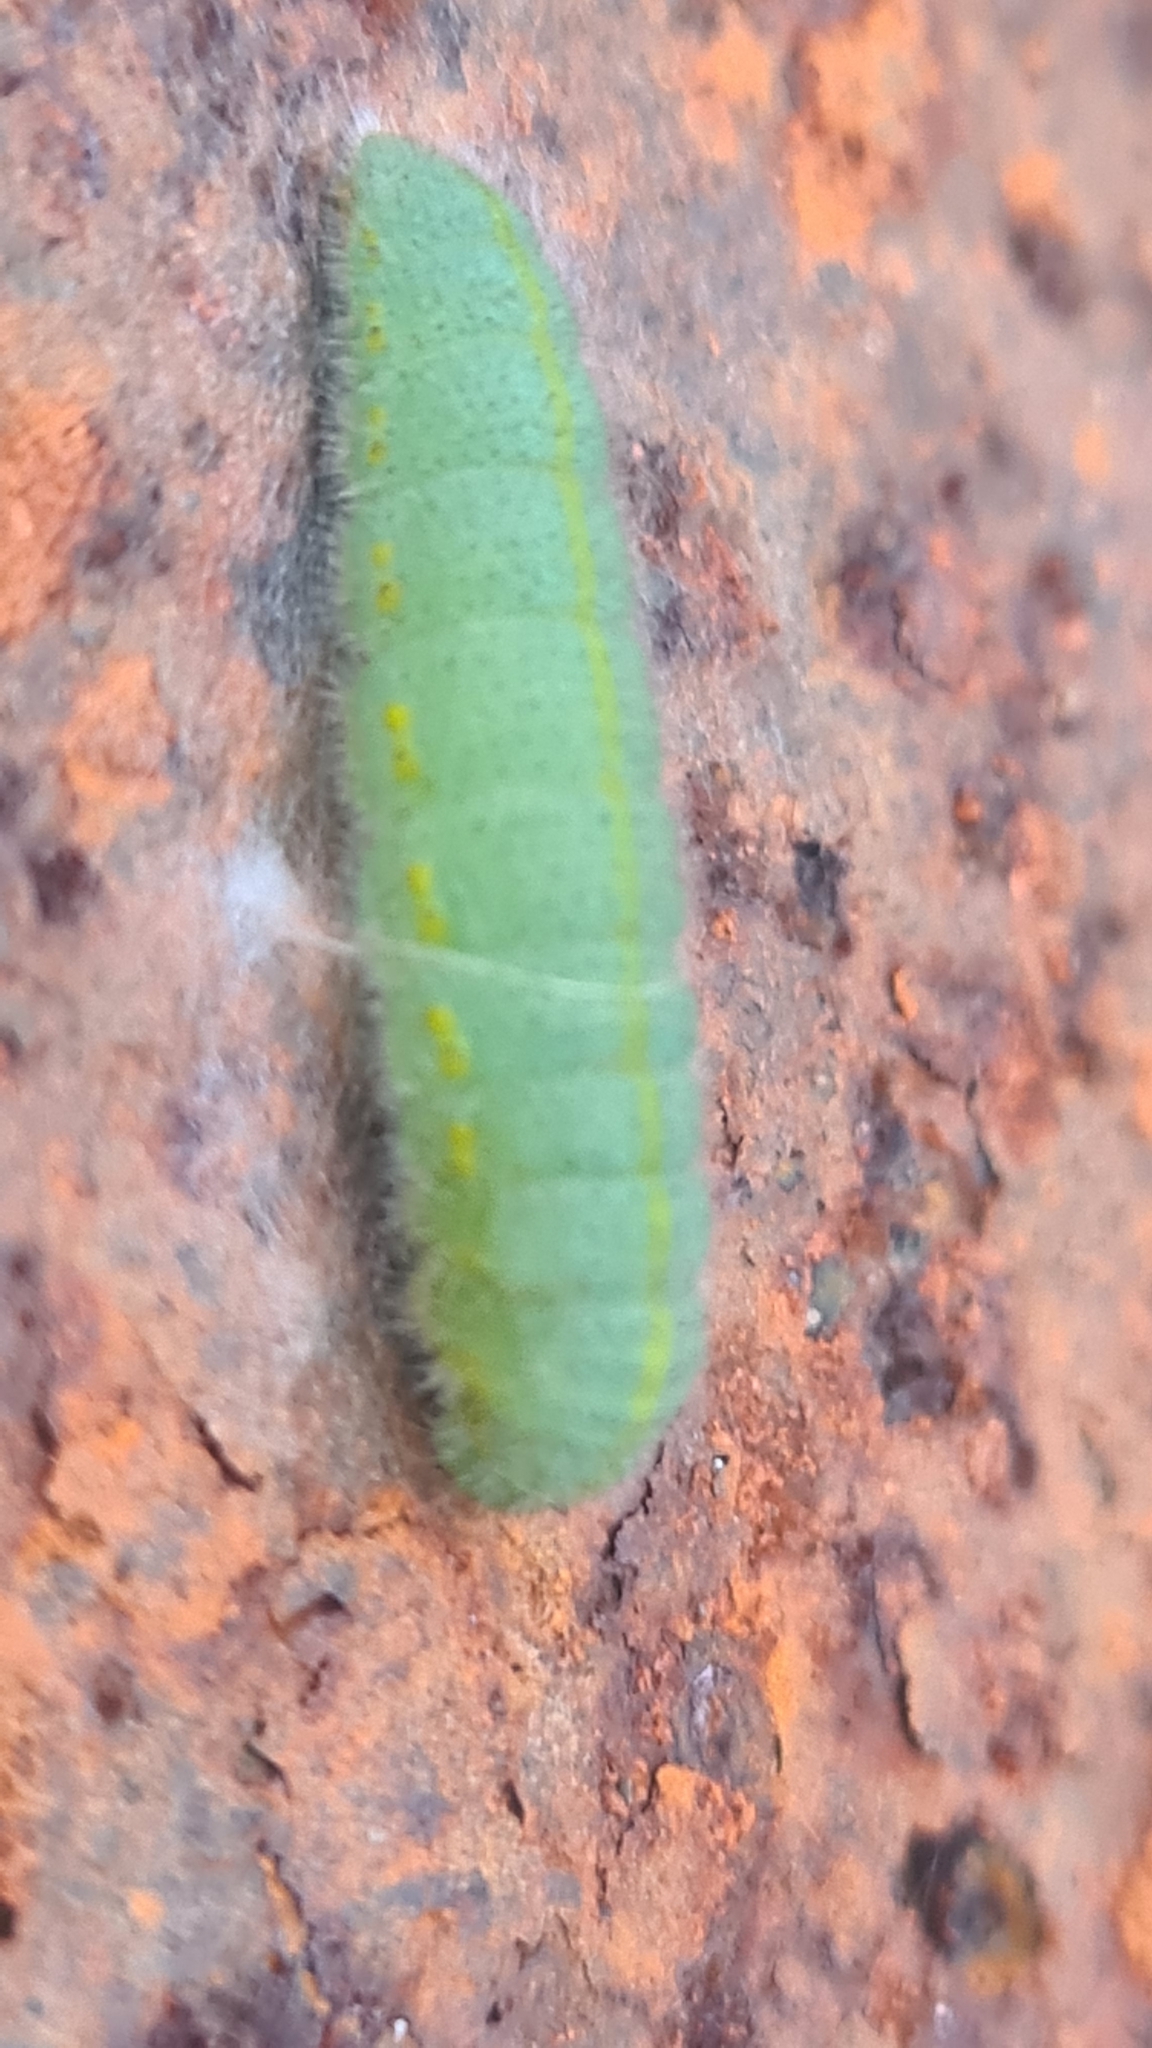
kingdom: Animalia
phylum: Arthropoda
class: Insecta
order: Lepidoptera
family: Pieridae
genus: Pieris
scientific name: Pieris rapae
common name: Small white
